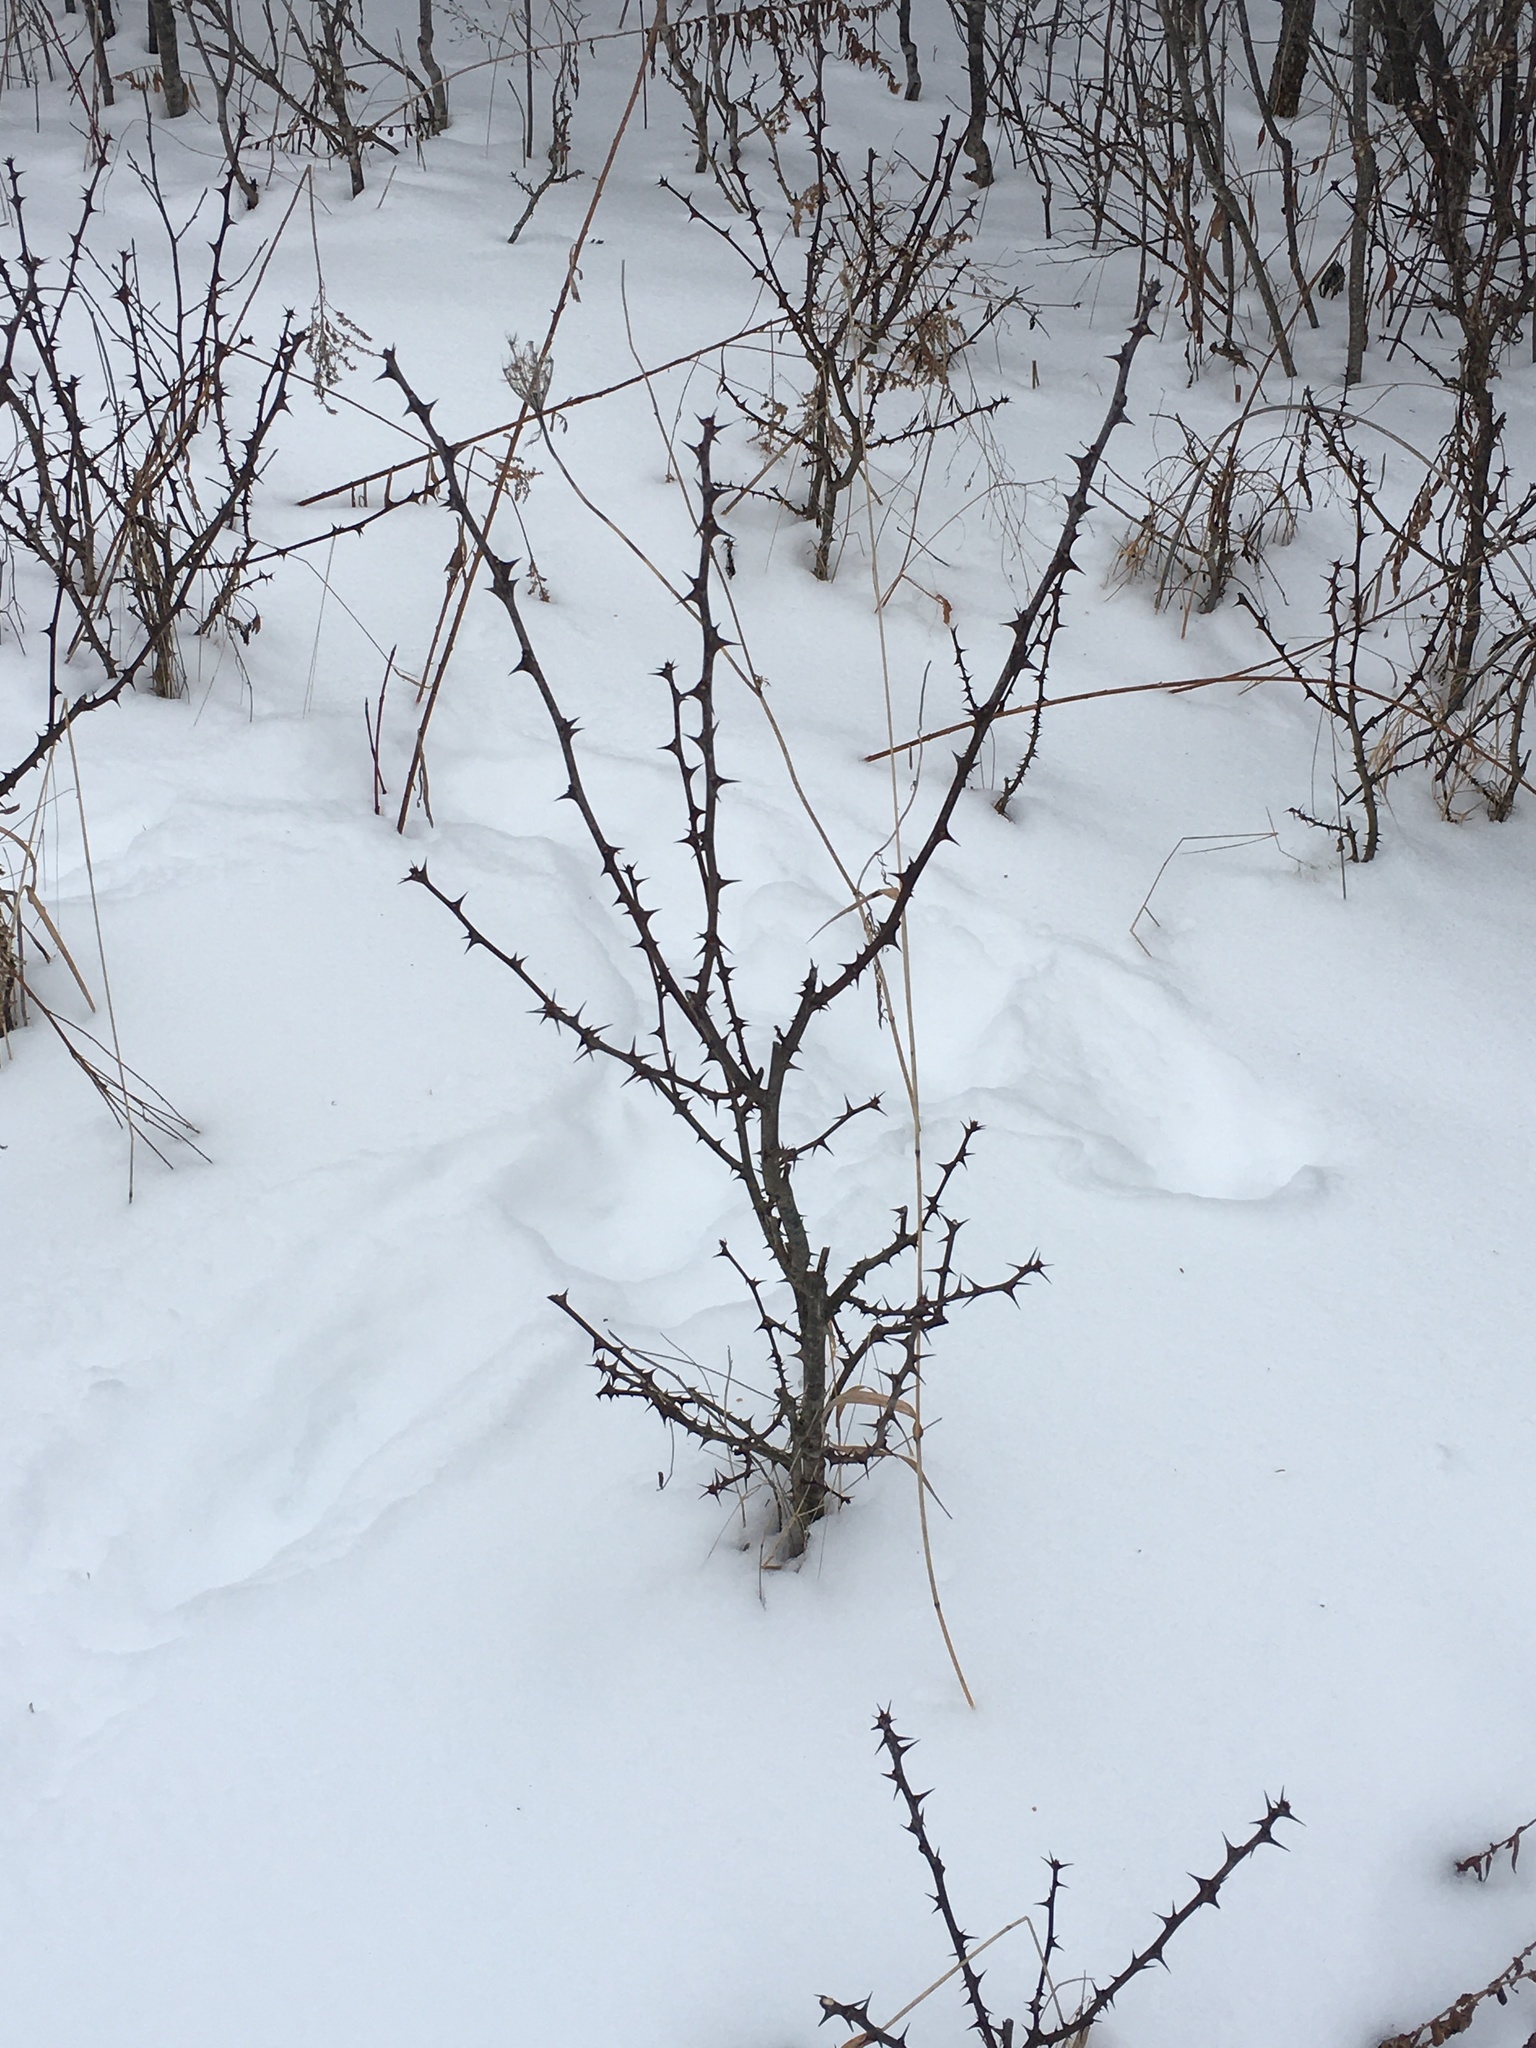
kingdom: Plantae
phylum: Tracheophyta
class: Magnoliopsida
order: Sapindales
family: Rutaceae
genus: Zanthoxylum
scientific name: Zanthoxylum americanum
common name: Northern prickly-ash
